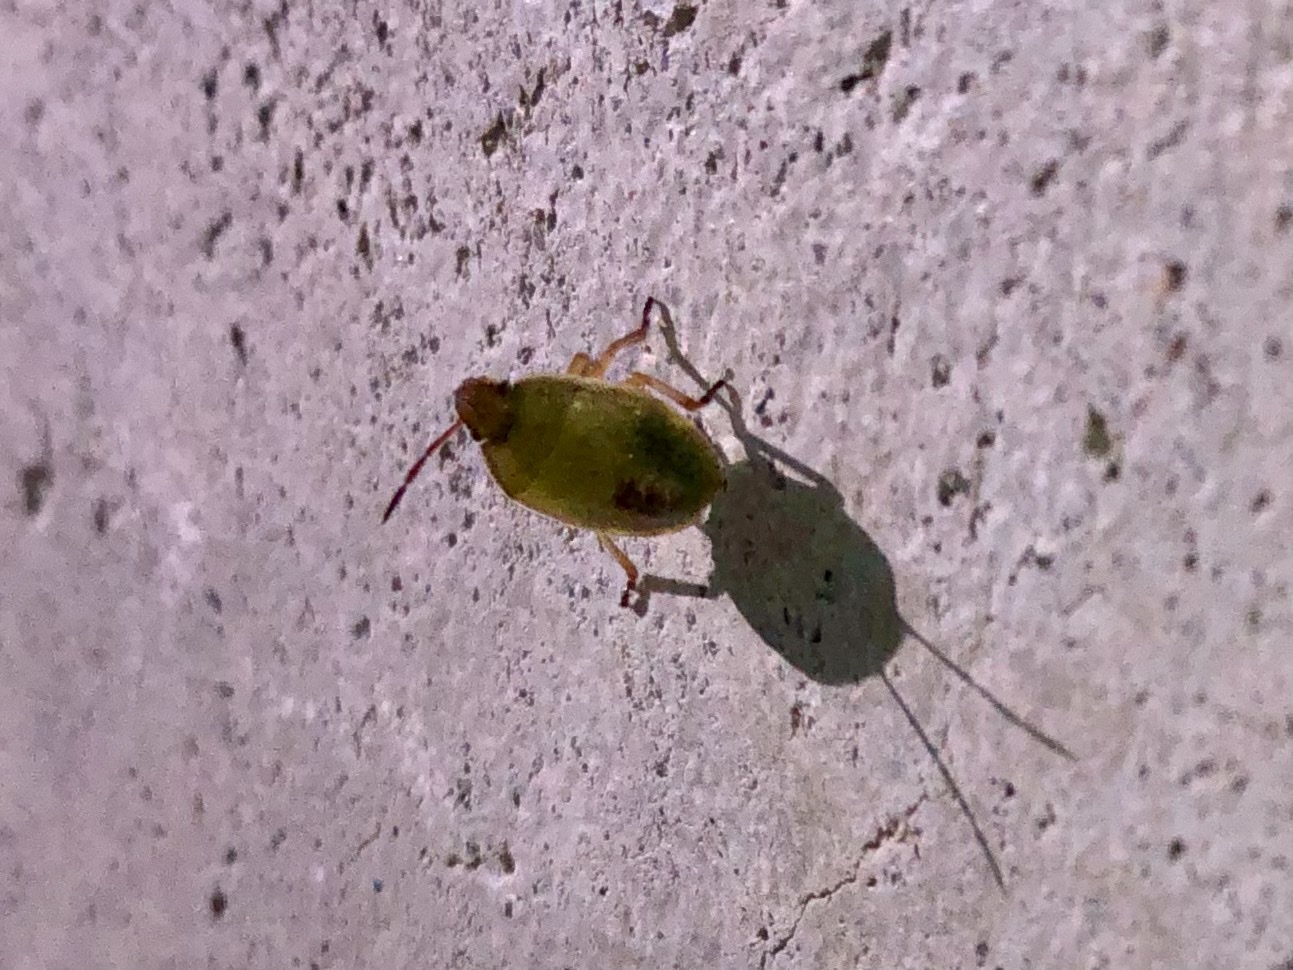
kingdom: Animalia
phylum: Arthropoda
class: Insecta
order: Hemiptera
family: Pentatomidae
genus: Piezodorus
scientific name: Piezodorus lituratus
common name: Stink bug
